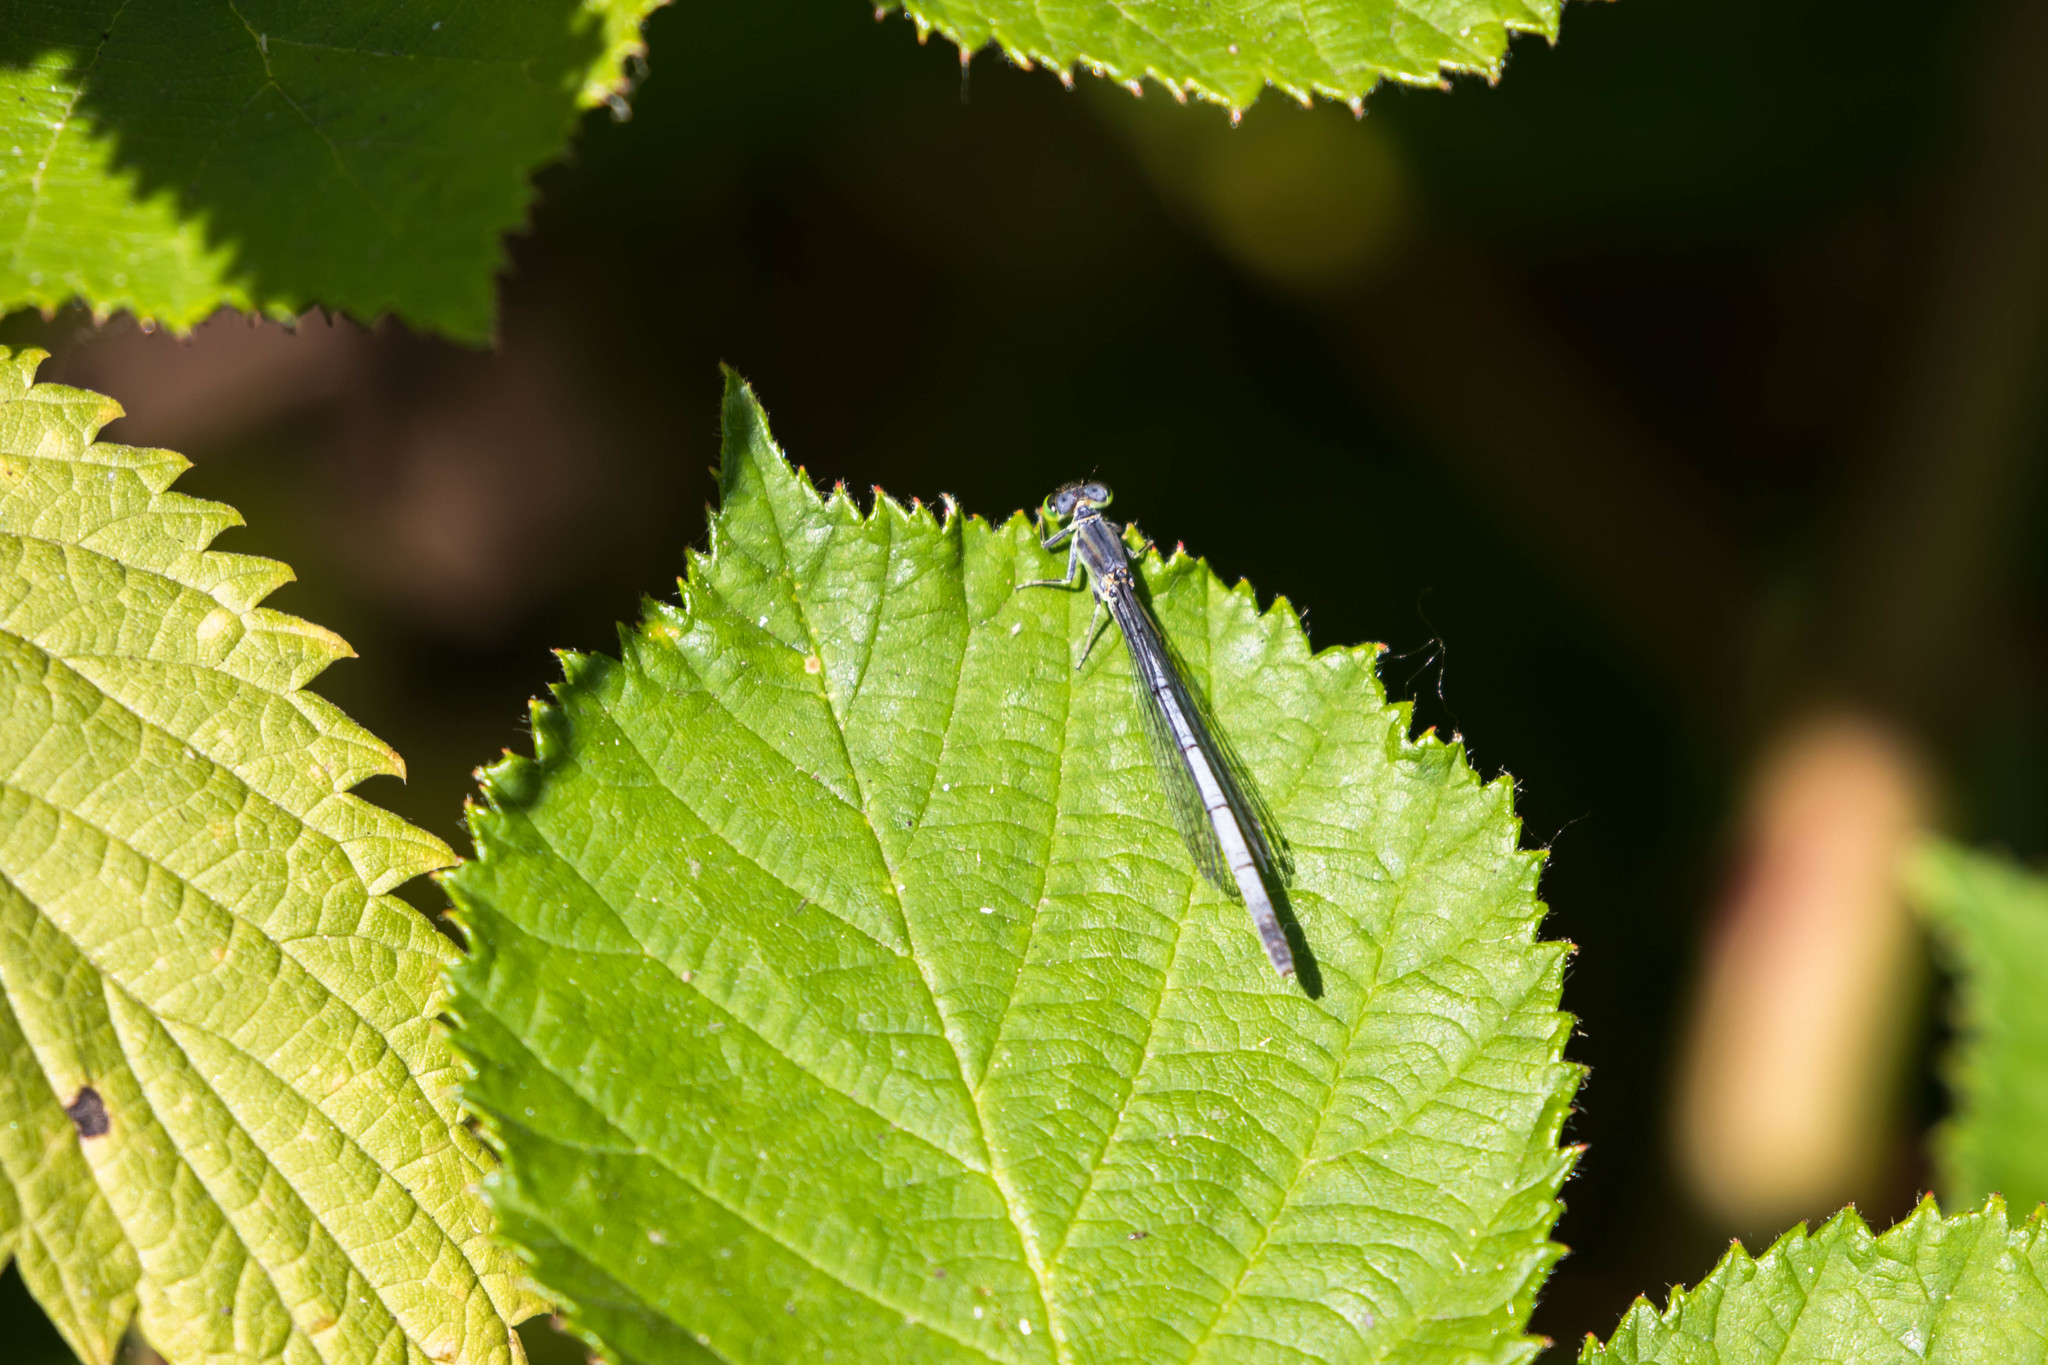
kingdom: Animalia
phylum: Arthropoda
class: Insecta
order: Odonata
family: Coenagrionidae
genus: Ischnura
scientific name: Ischnura perparva
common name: Western forktail
